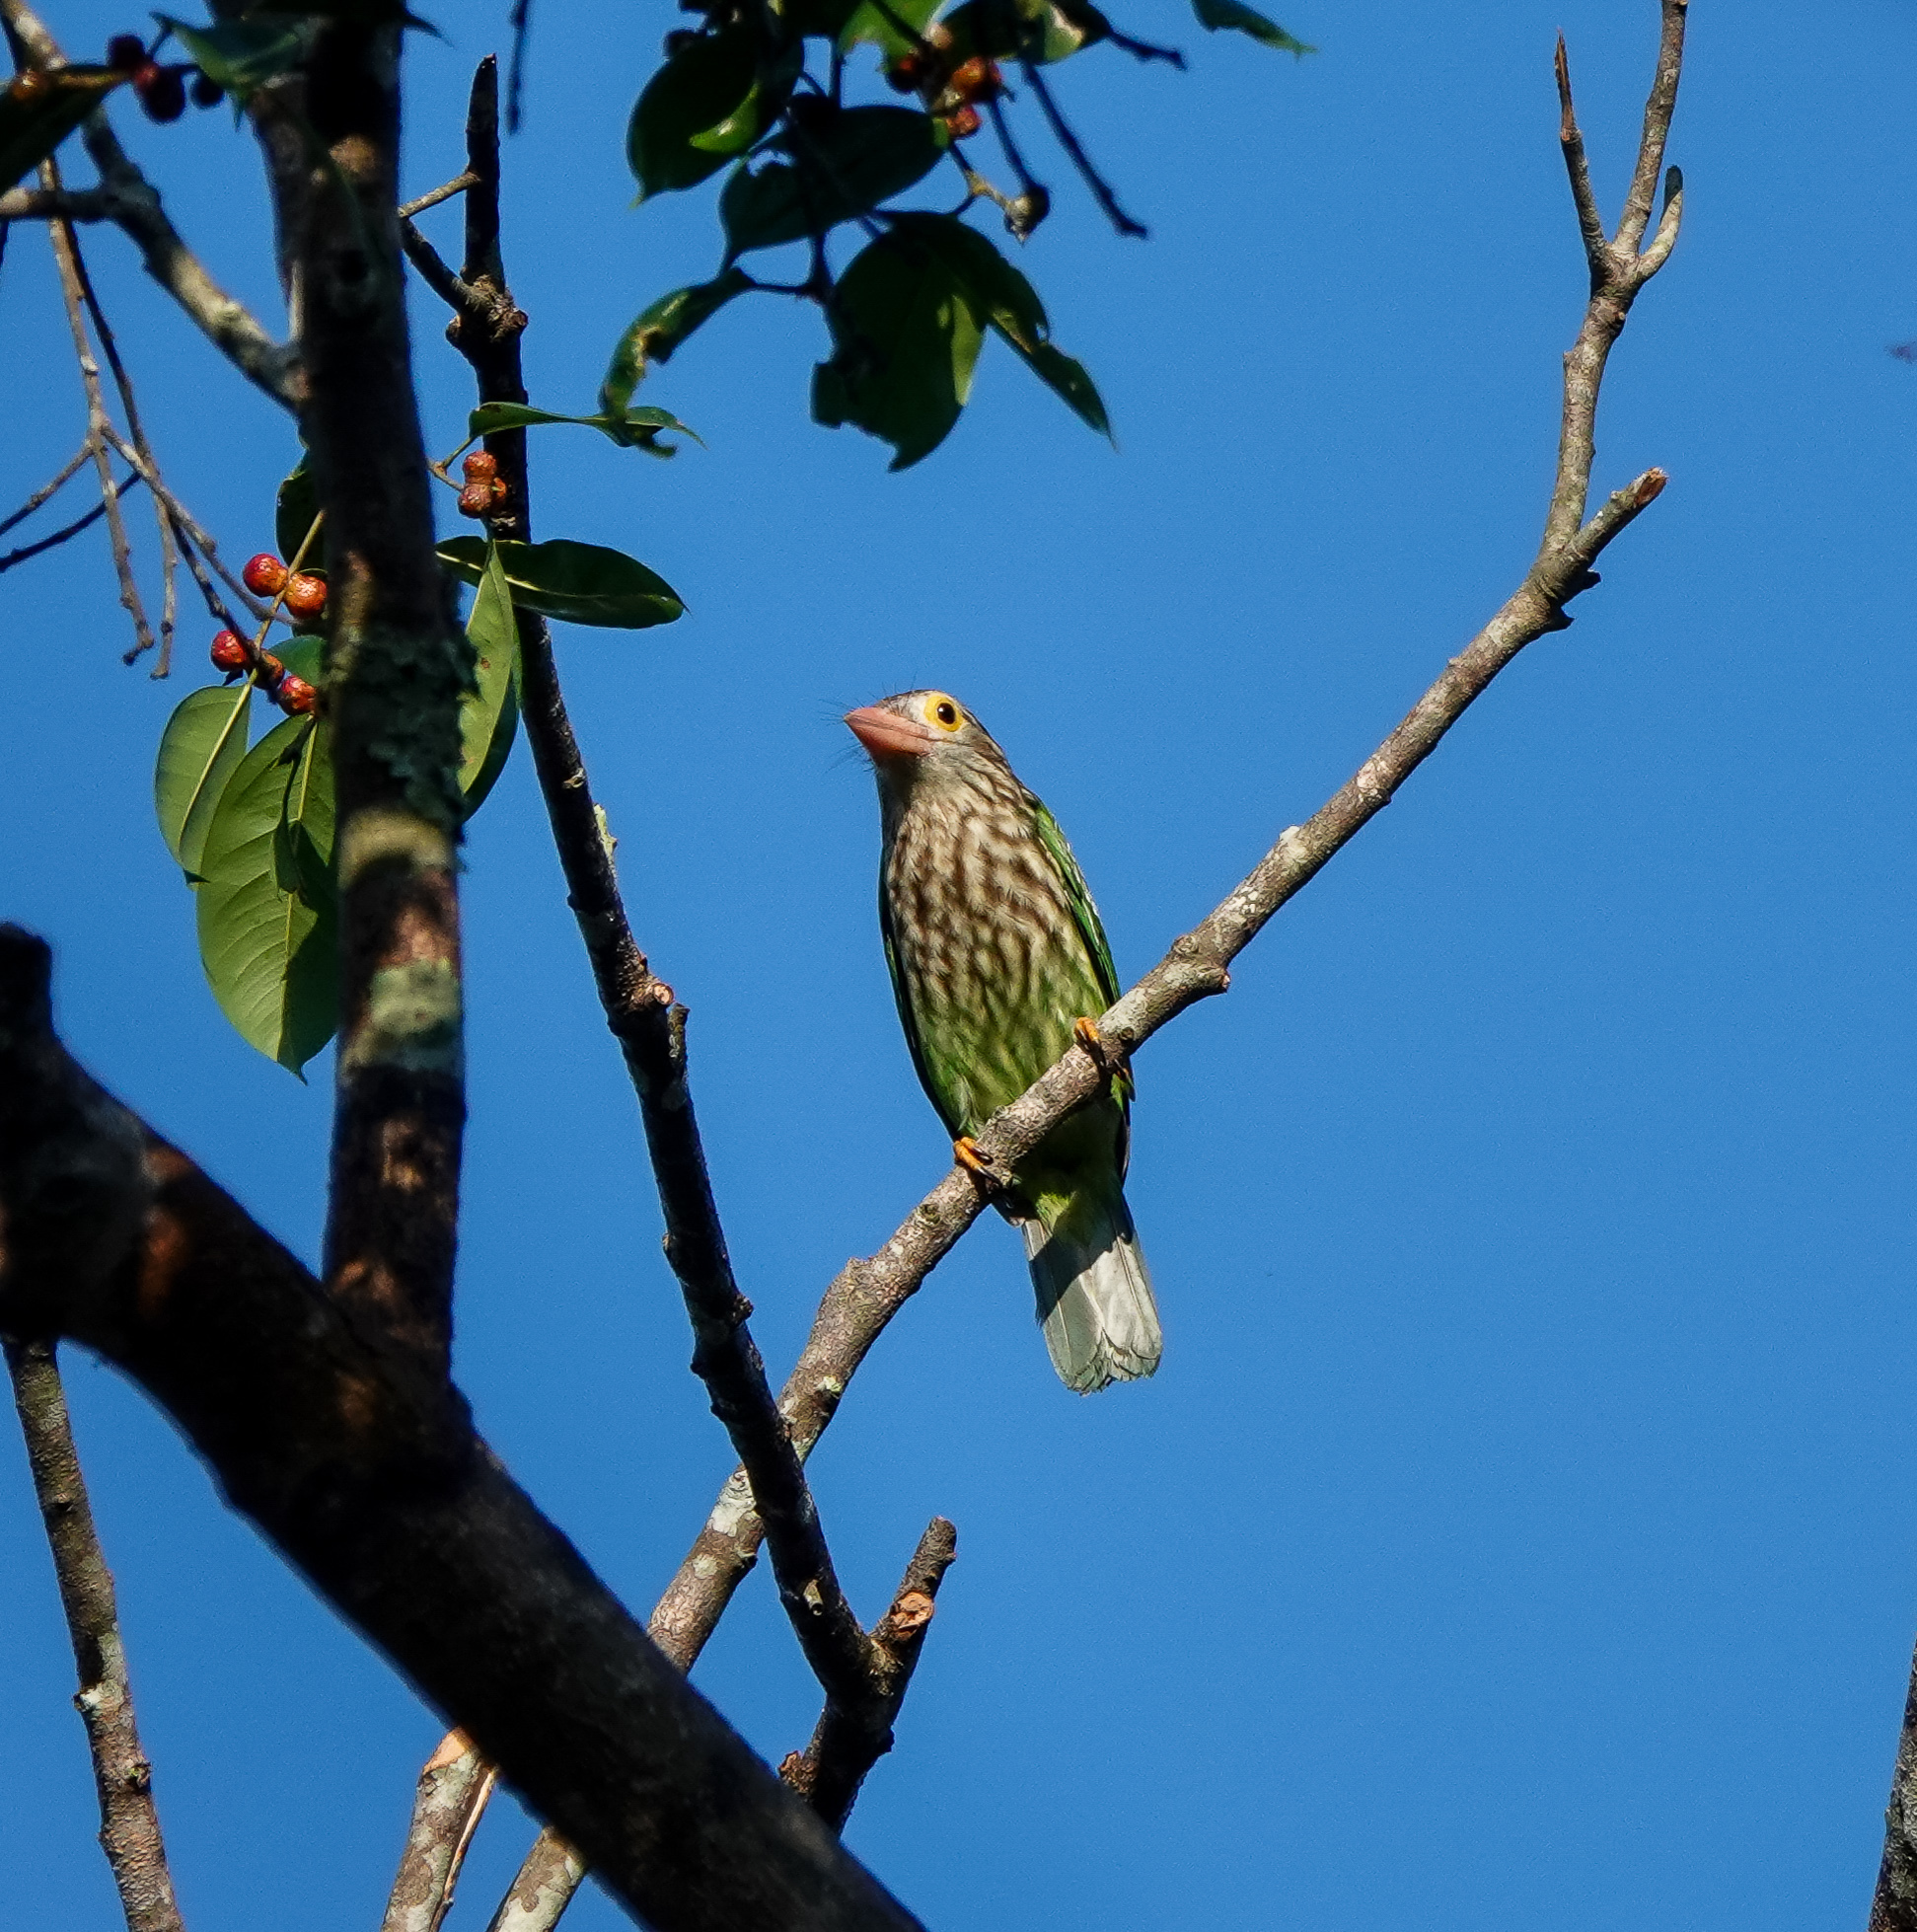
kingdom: Animalia
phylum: Chordata
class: Aves
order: Piciformes
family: Megalaimidae
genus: Psilopogon
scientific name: Psilopogon lineatus
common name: Lineated barbet
